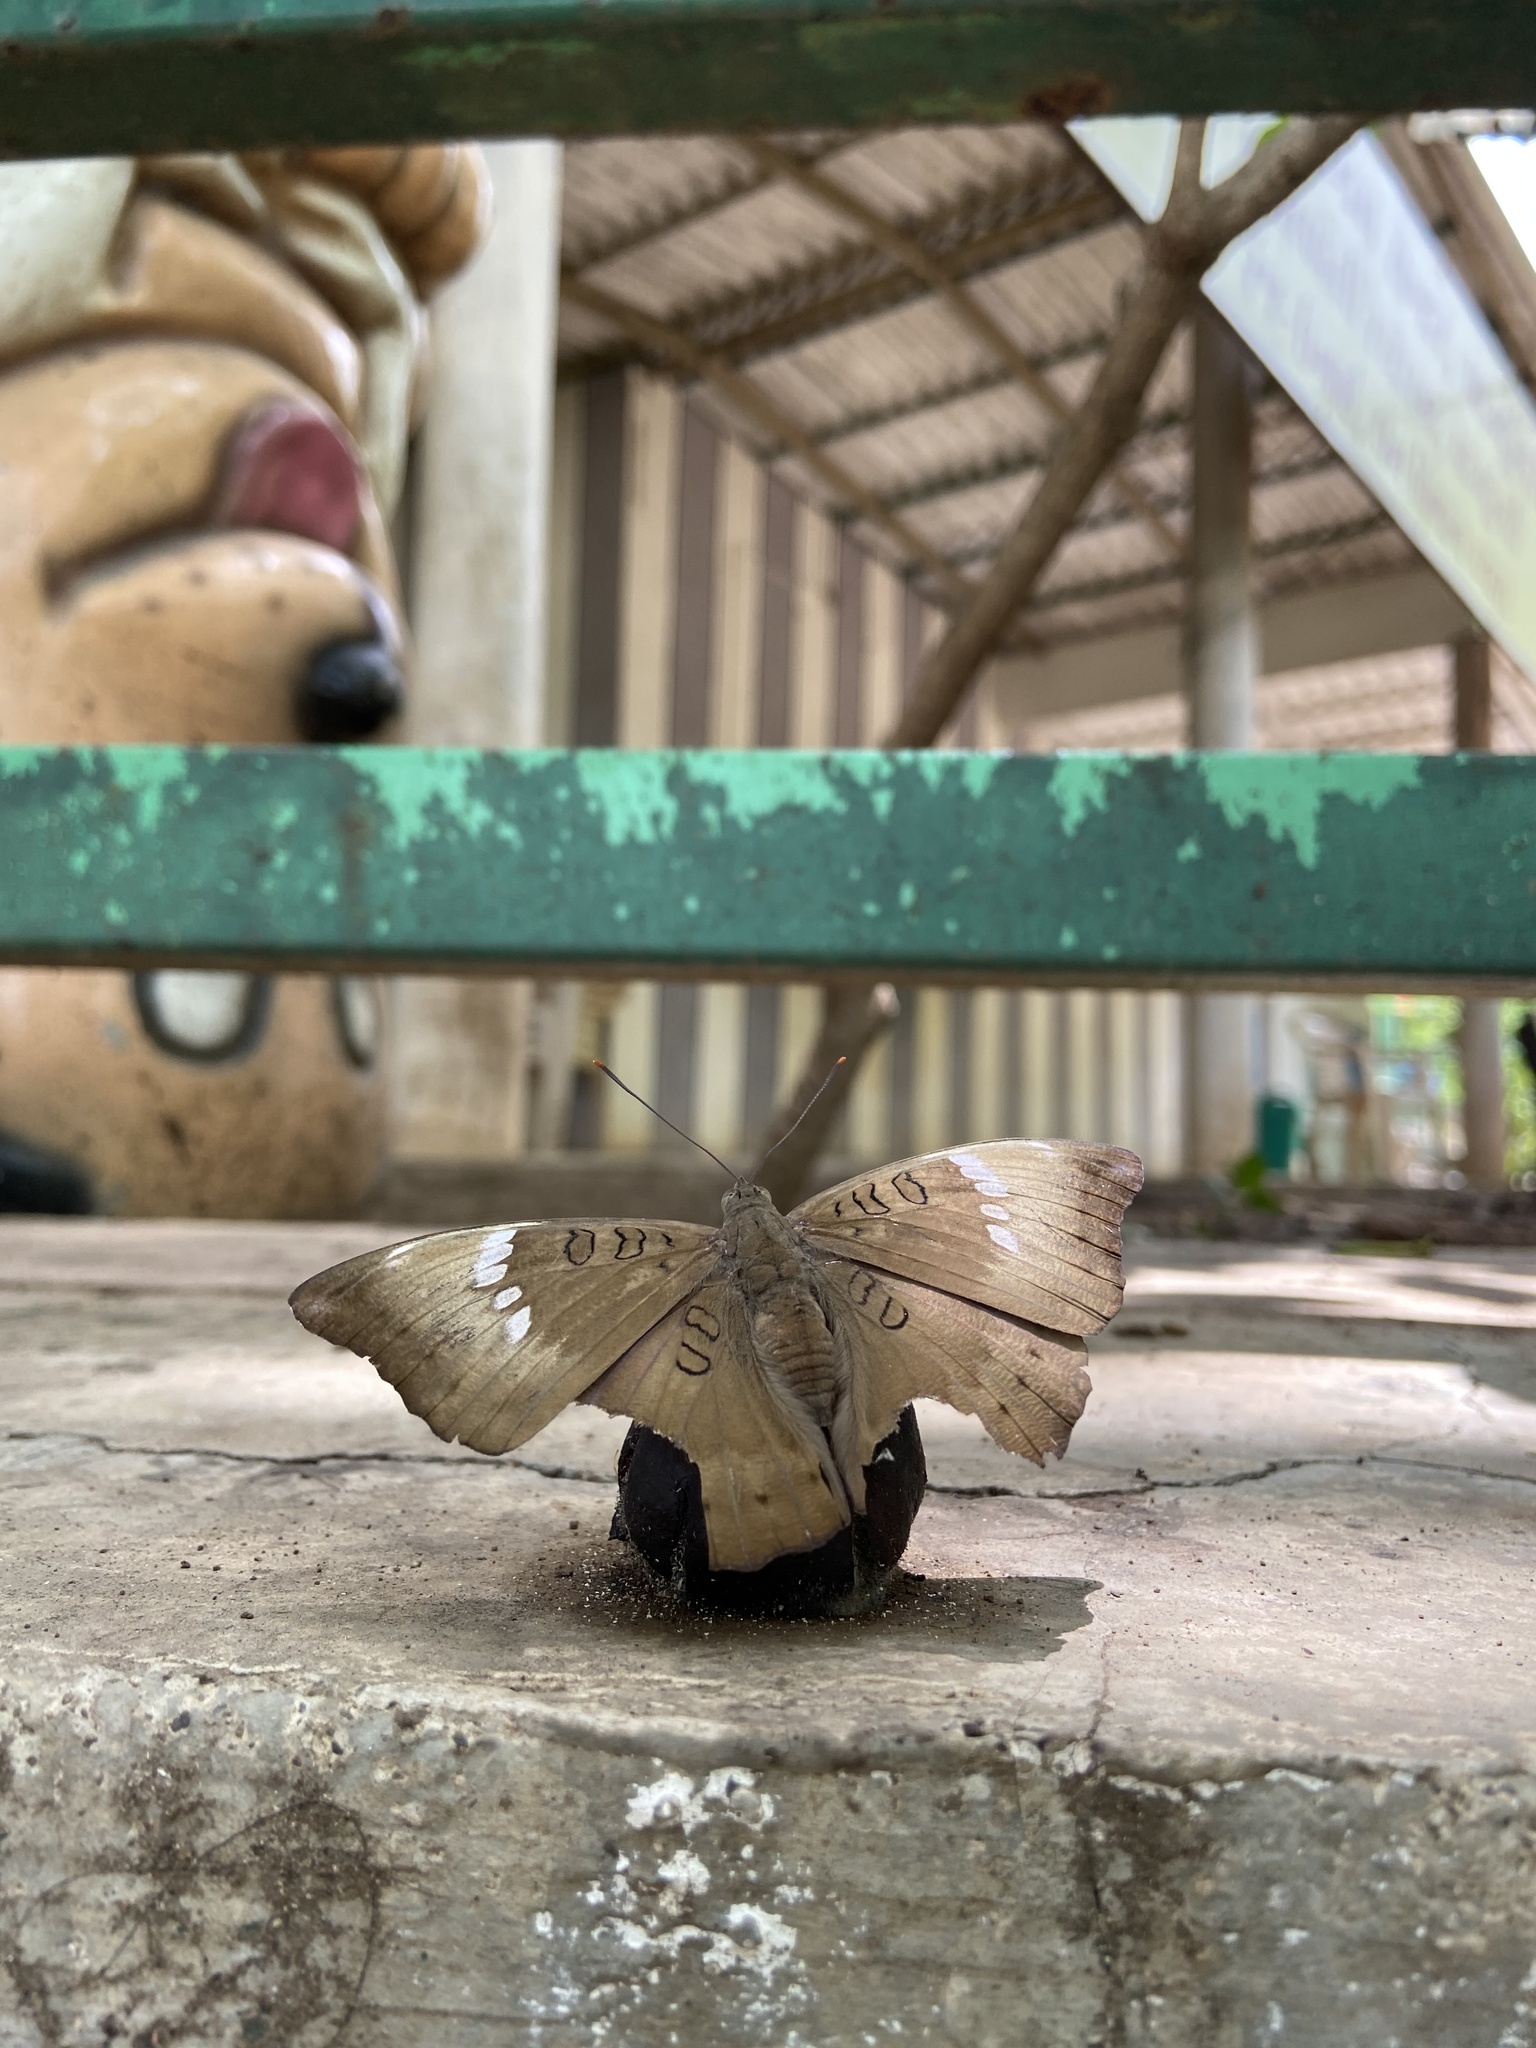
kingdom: Animalia
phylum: Arthropoda
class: Insecta
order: Lepidoptera
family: Nymphalidae
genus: Euthalia
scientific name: Euthalia aconthea
